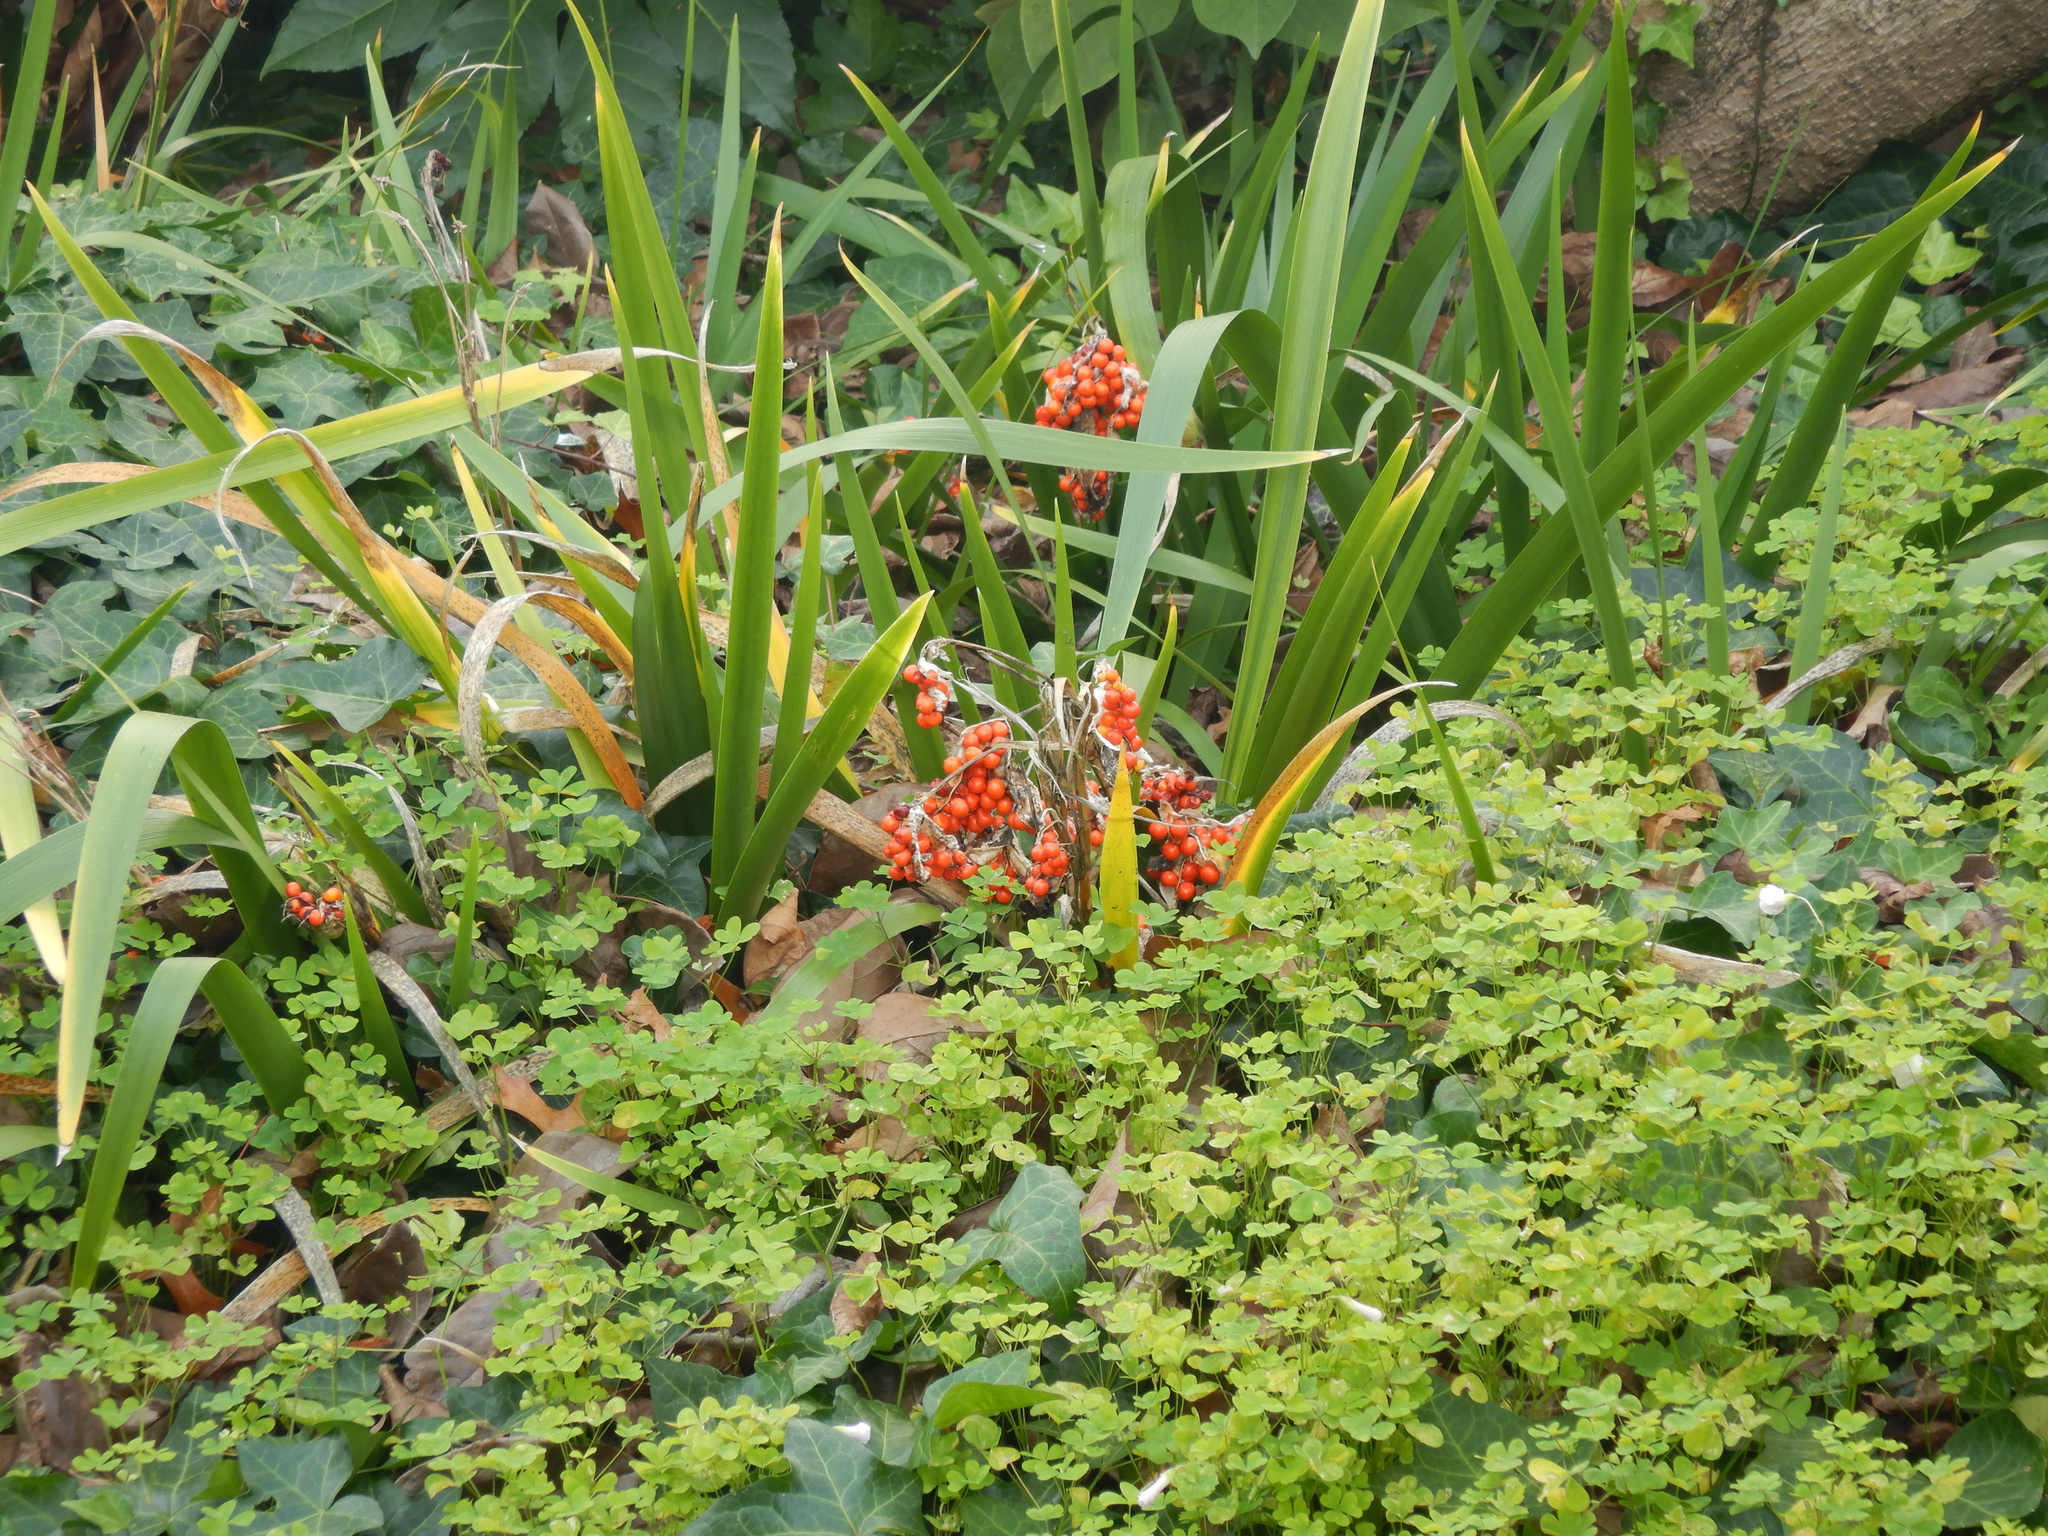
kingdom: Plantae
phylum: Tracheophyta
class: Liliopsida
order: Asparagales
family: Iridaceae
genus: Iris
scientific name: Iris foetidissima
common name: Stinking iris
